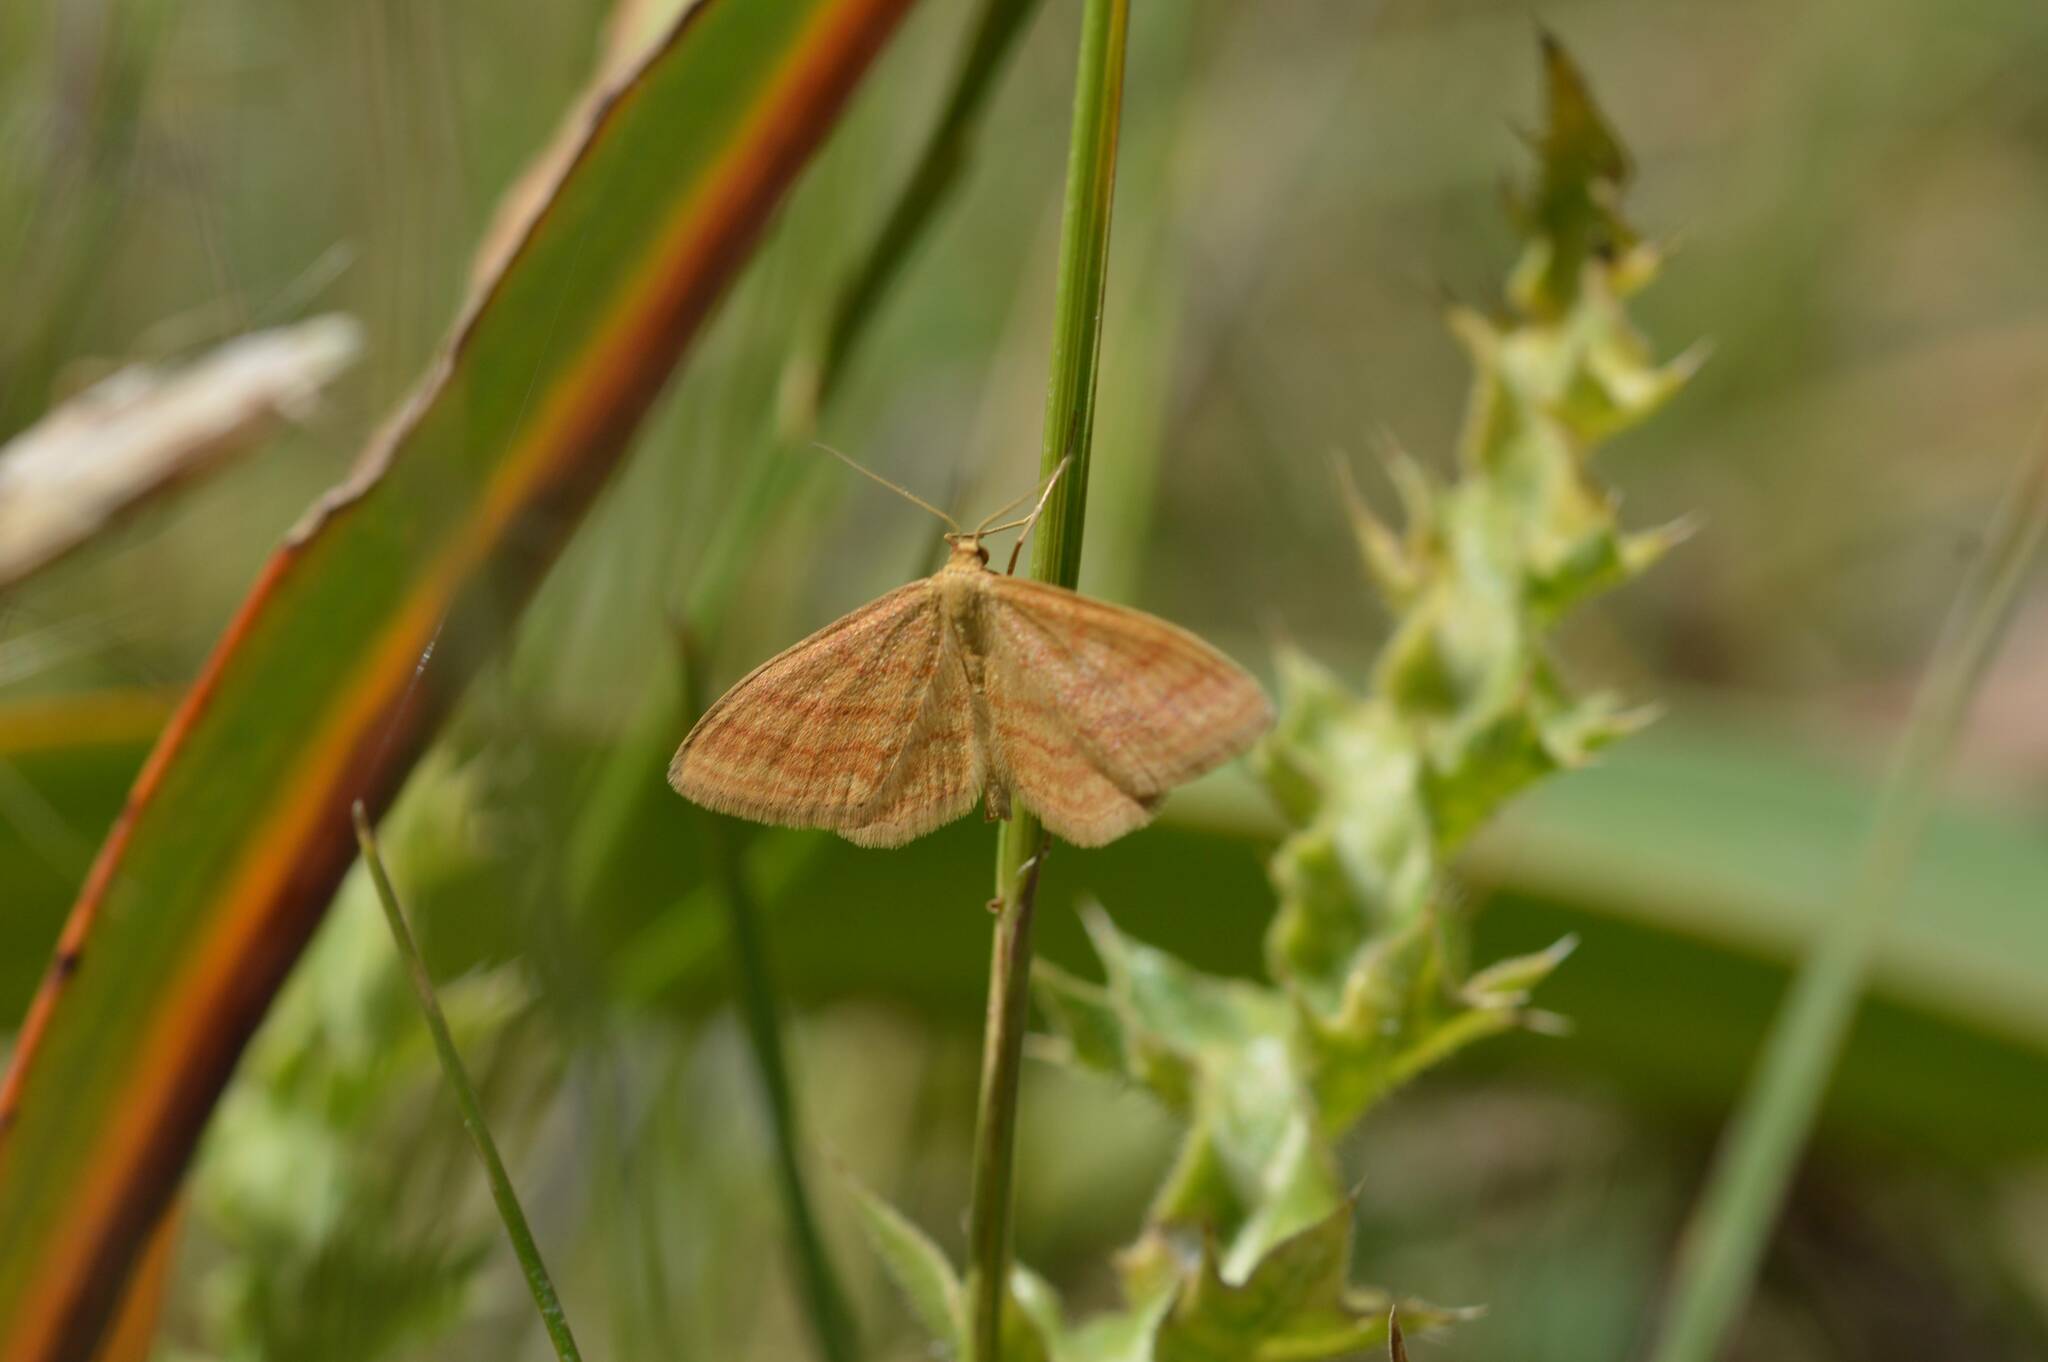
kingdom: Animalia
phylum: Arthropoda
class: Insecta
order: Lepidoptera
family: Geometridae
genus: Idaea
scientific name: Idaea ochrata
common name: Bright wave
